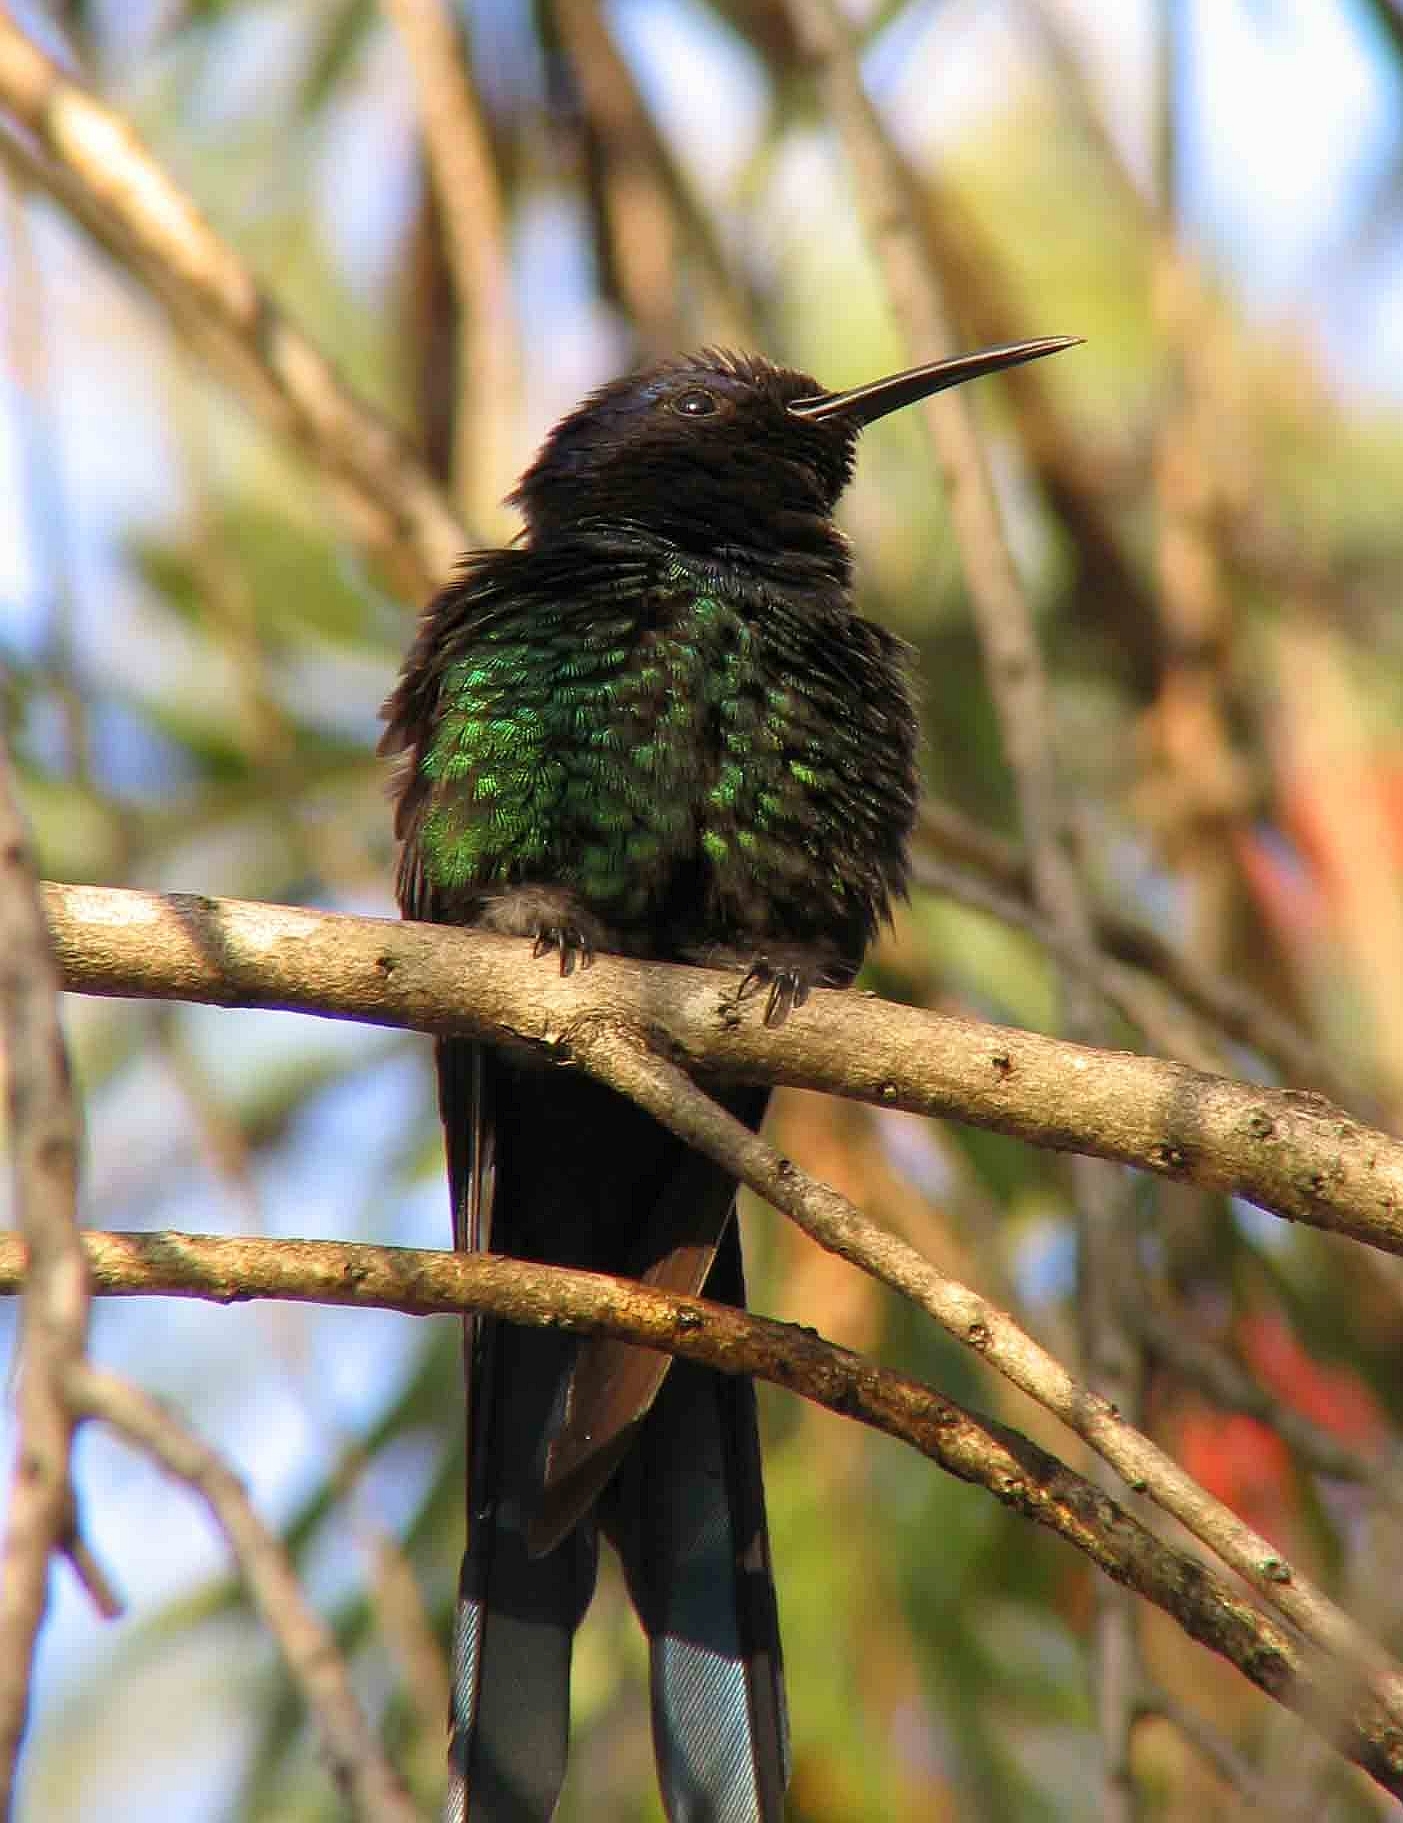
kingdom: Animalia
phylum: Chordata
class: Aves
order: Apodiformes
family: Trochilidae
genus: Eupetomena
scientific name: Eupetomena macroura
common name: Swallow-tailed hummingbird
